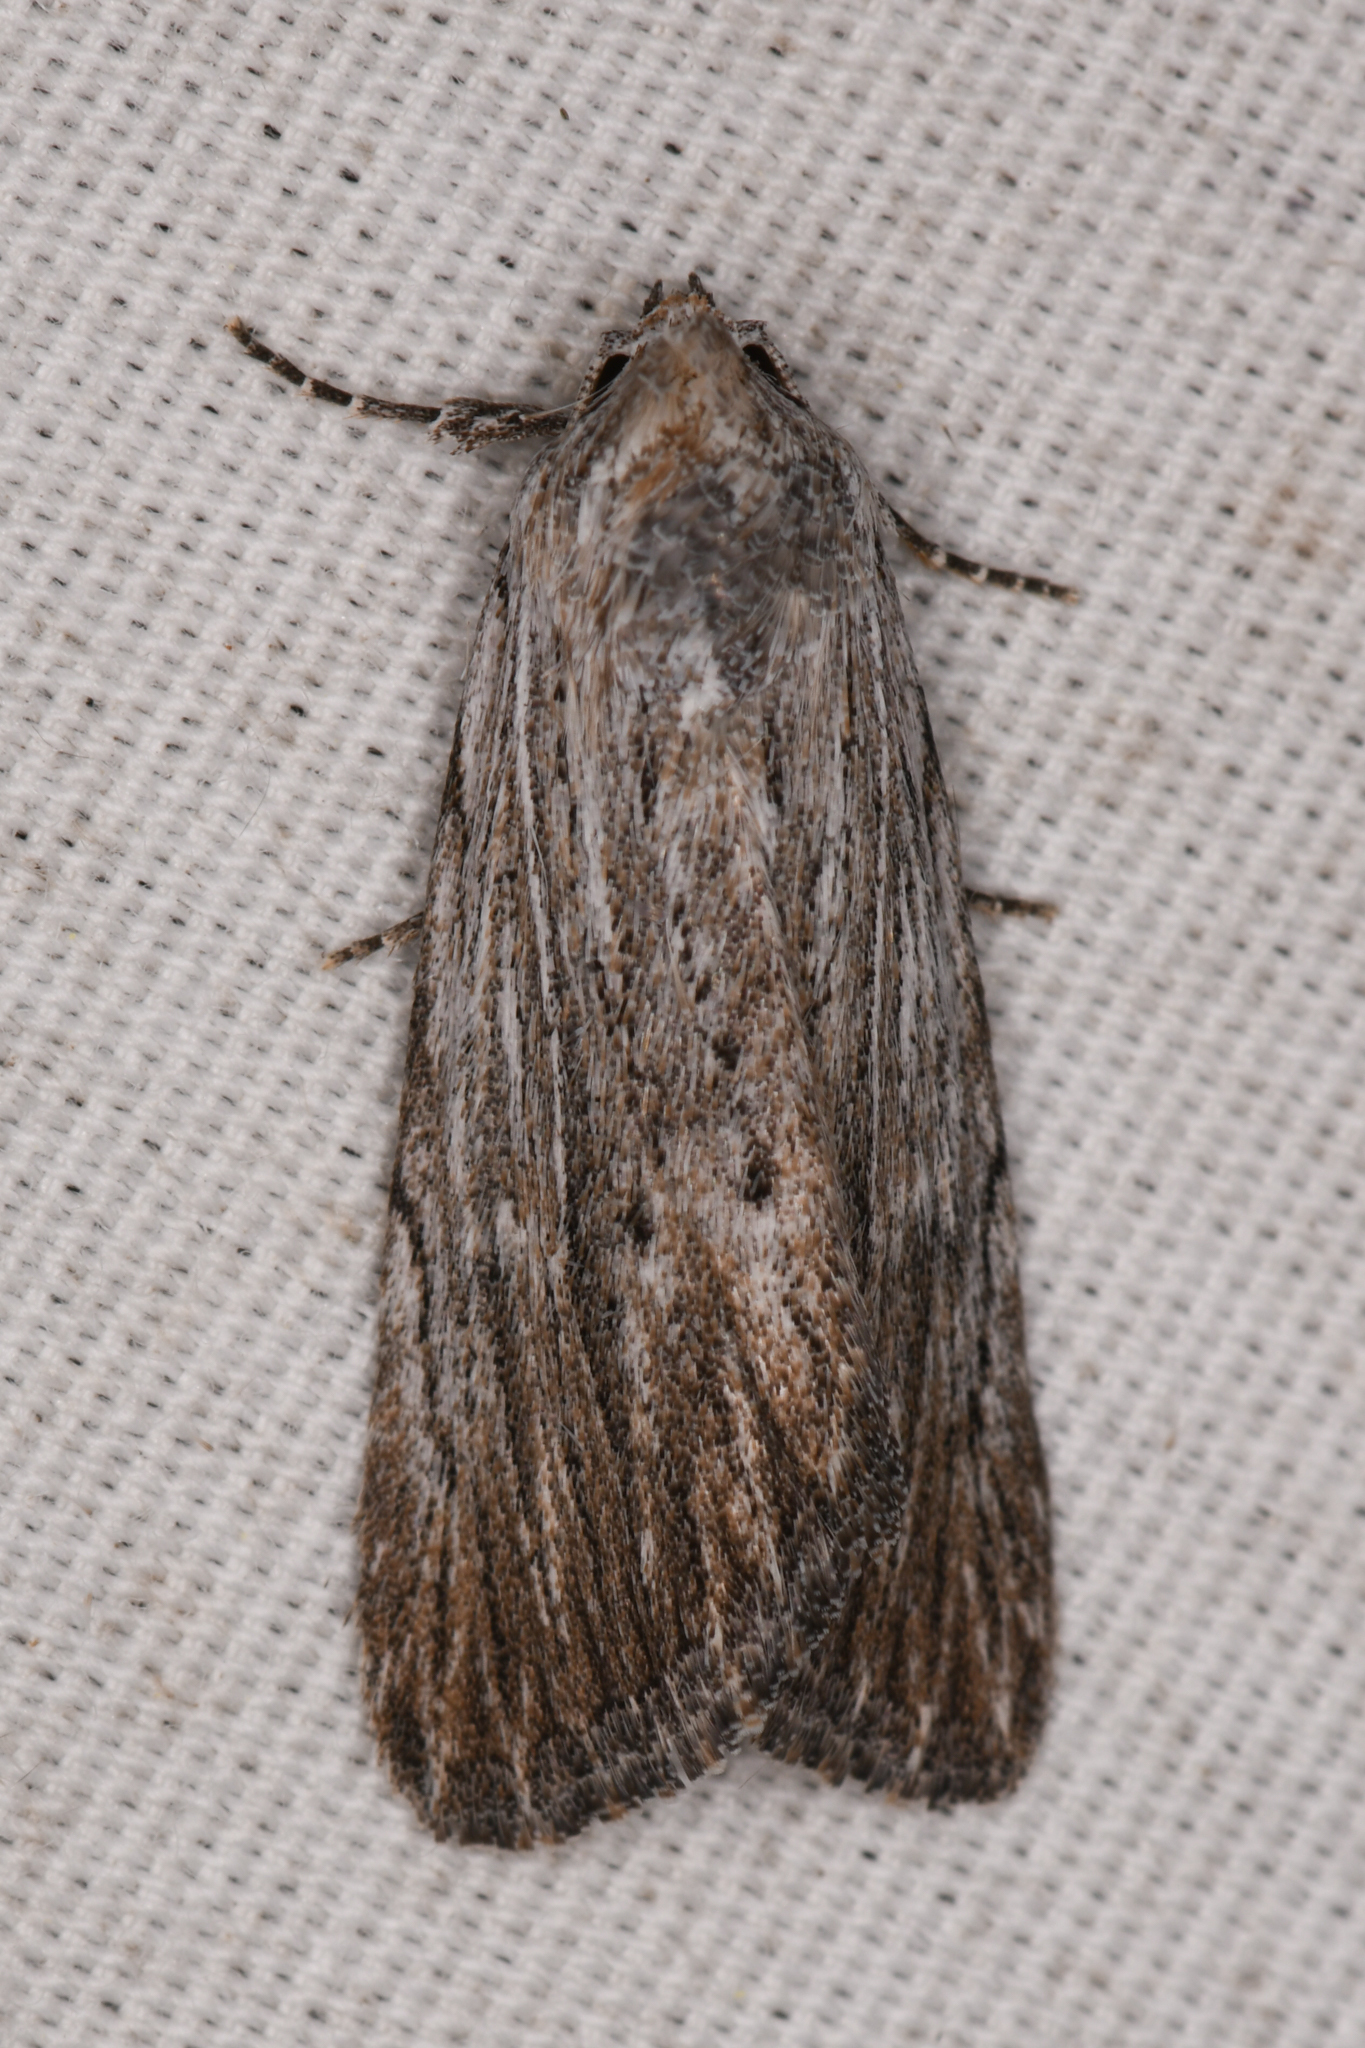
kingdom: Animalia
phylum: Arthropoda
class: Insecta
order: Lepidoptera
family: Noctuidae
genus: Catabena
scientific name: Catabena lineolata
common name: Fine-lined sallow
